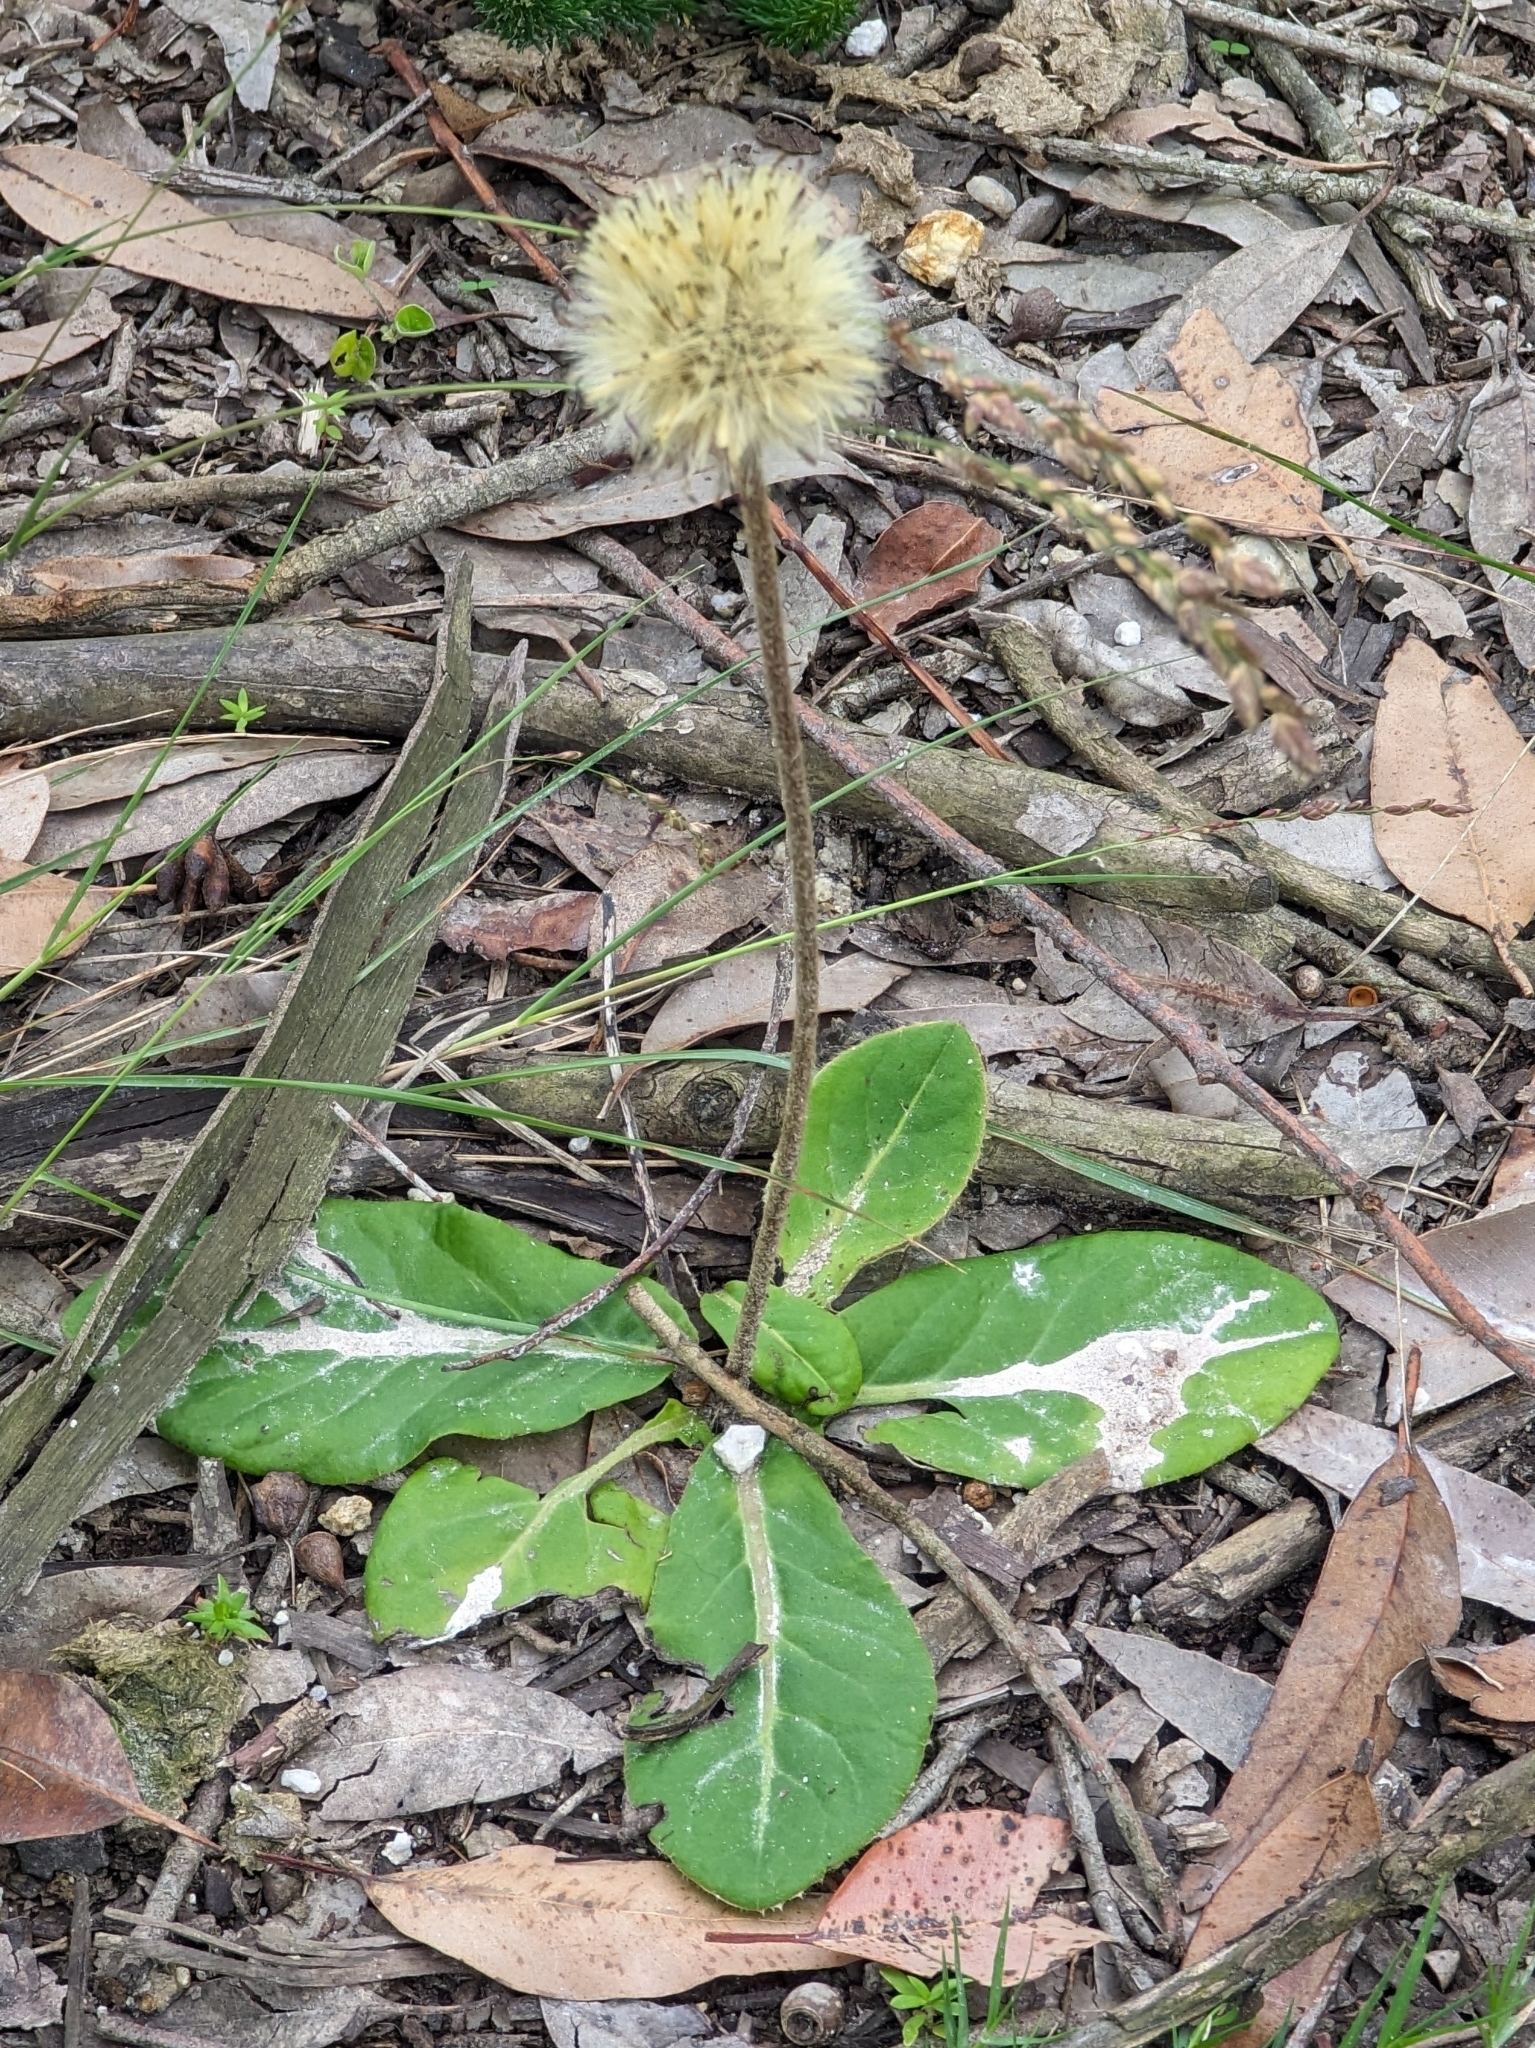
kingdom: Plantae
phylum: Tracheophyta
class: Magnoliopsida
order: Asterales
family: Asteraceae
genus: Piloselloides
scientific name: Piloselloides cordata
